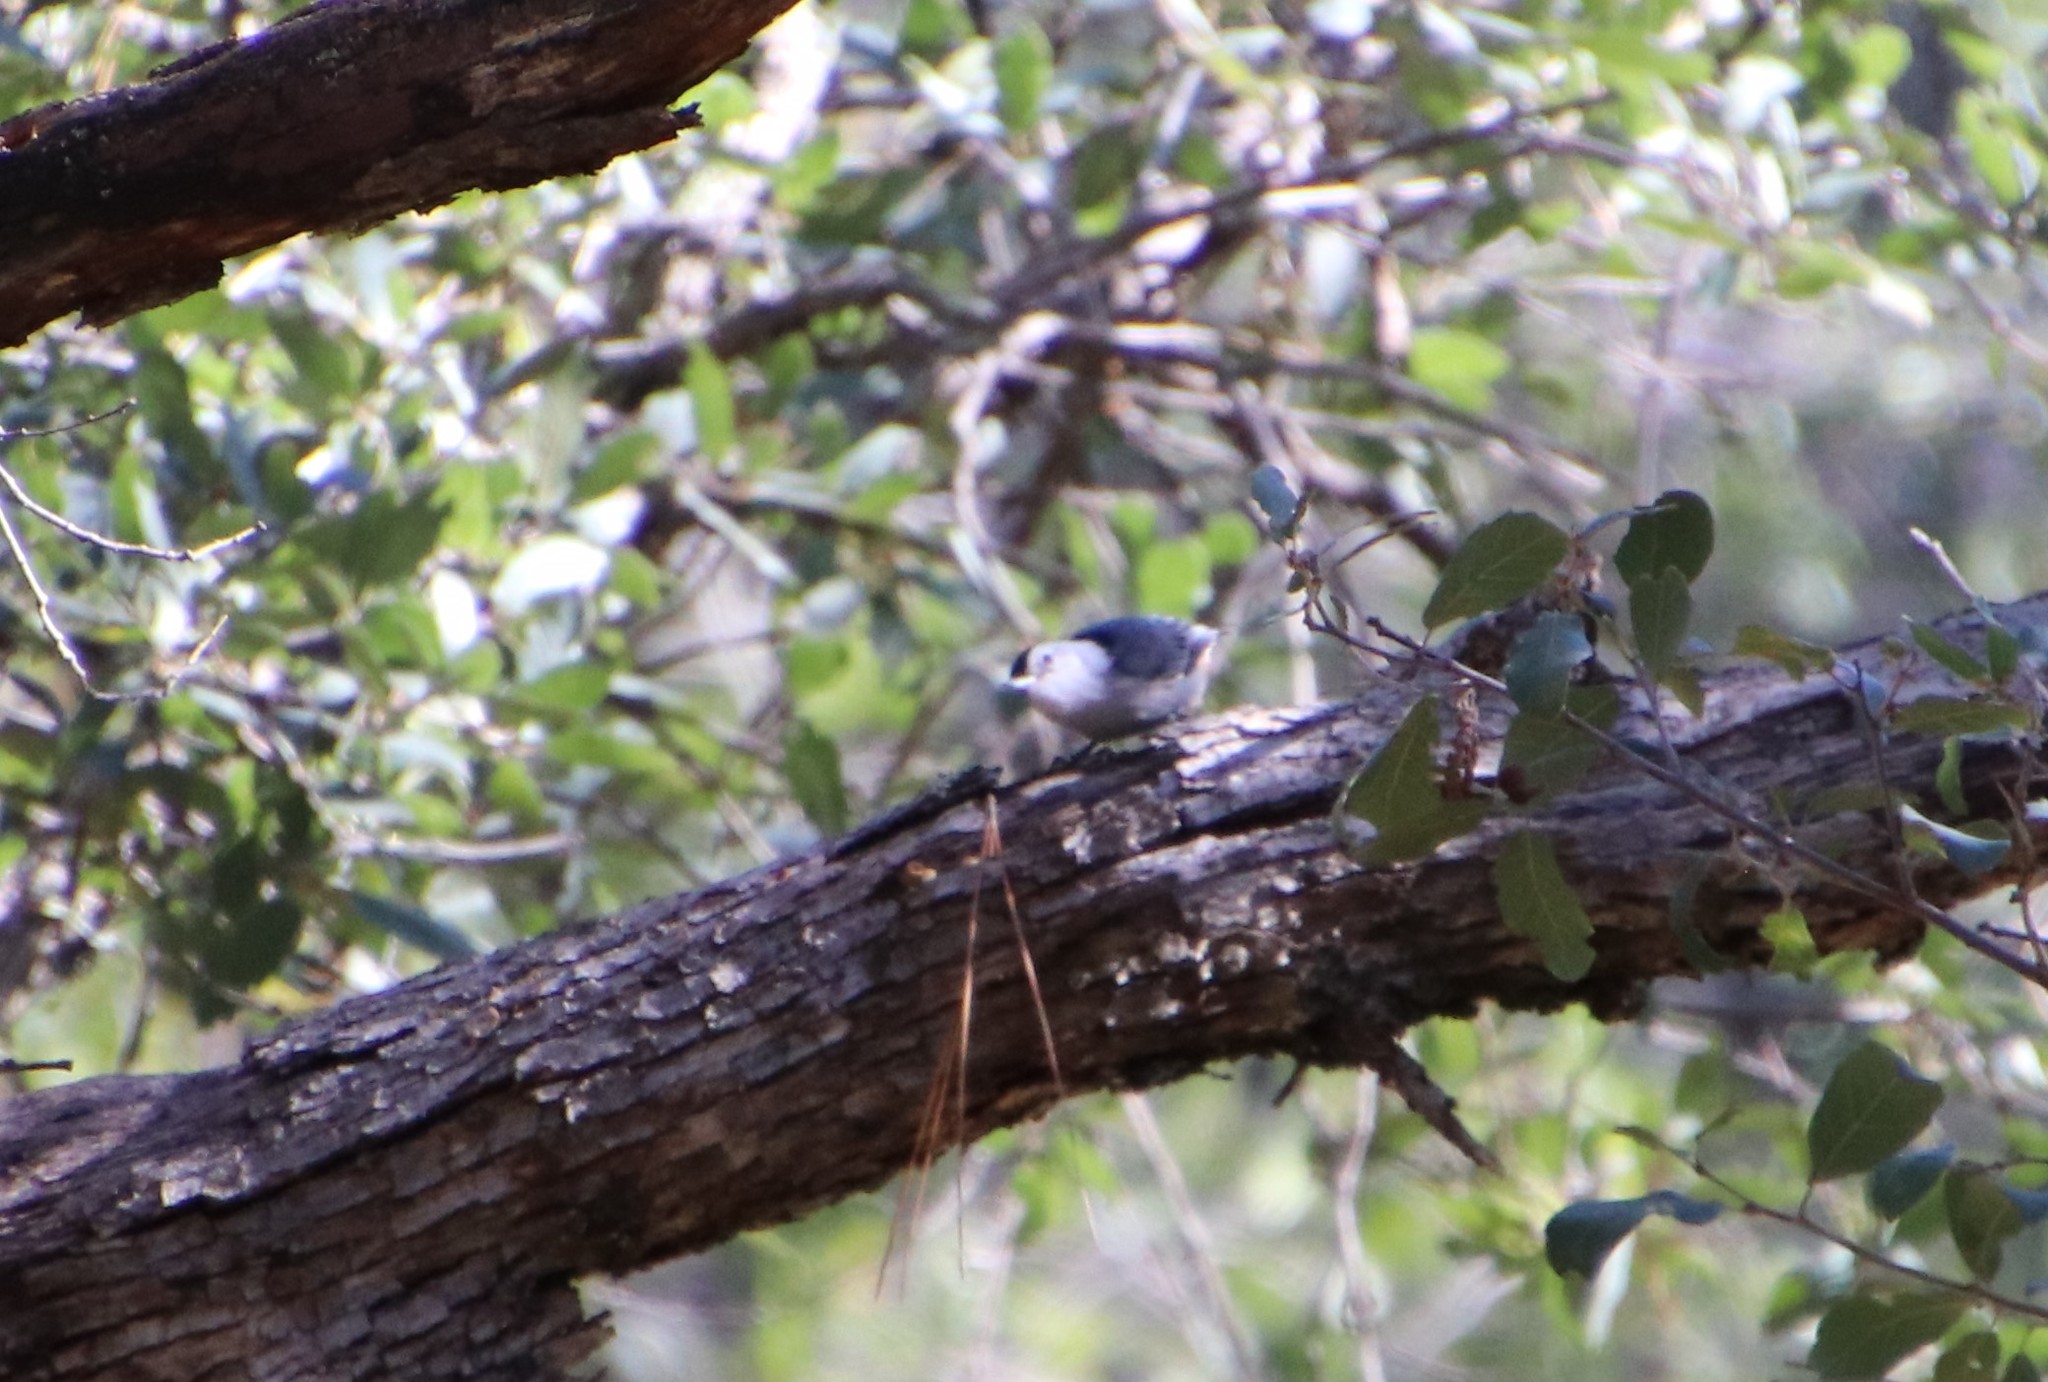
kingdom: Animalia
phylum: Chordata
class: Aves
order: Passeriformes
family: Sittidae
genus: Sitta
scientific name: Sitta carolinensis
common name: White-breasted nuthatch
